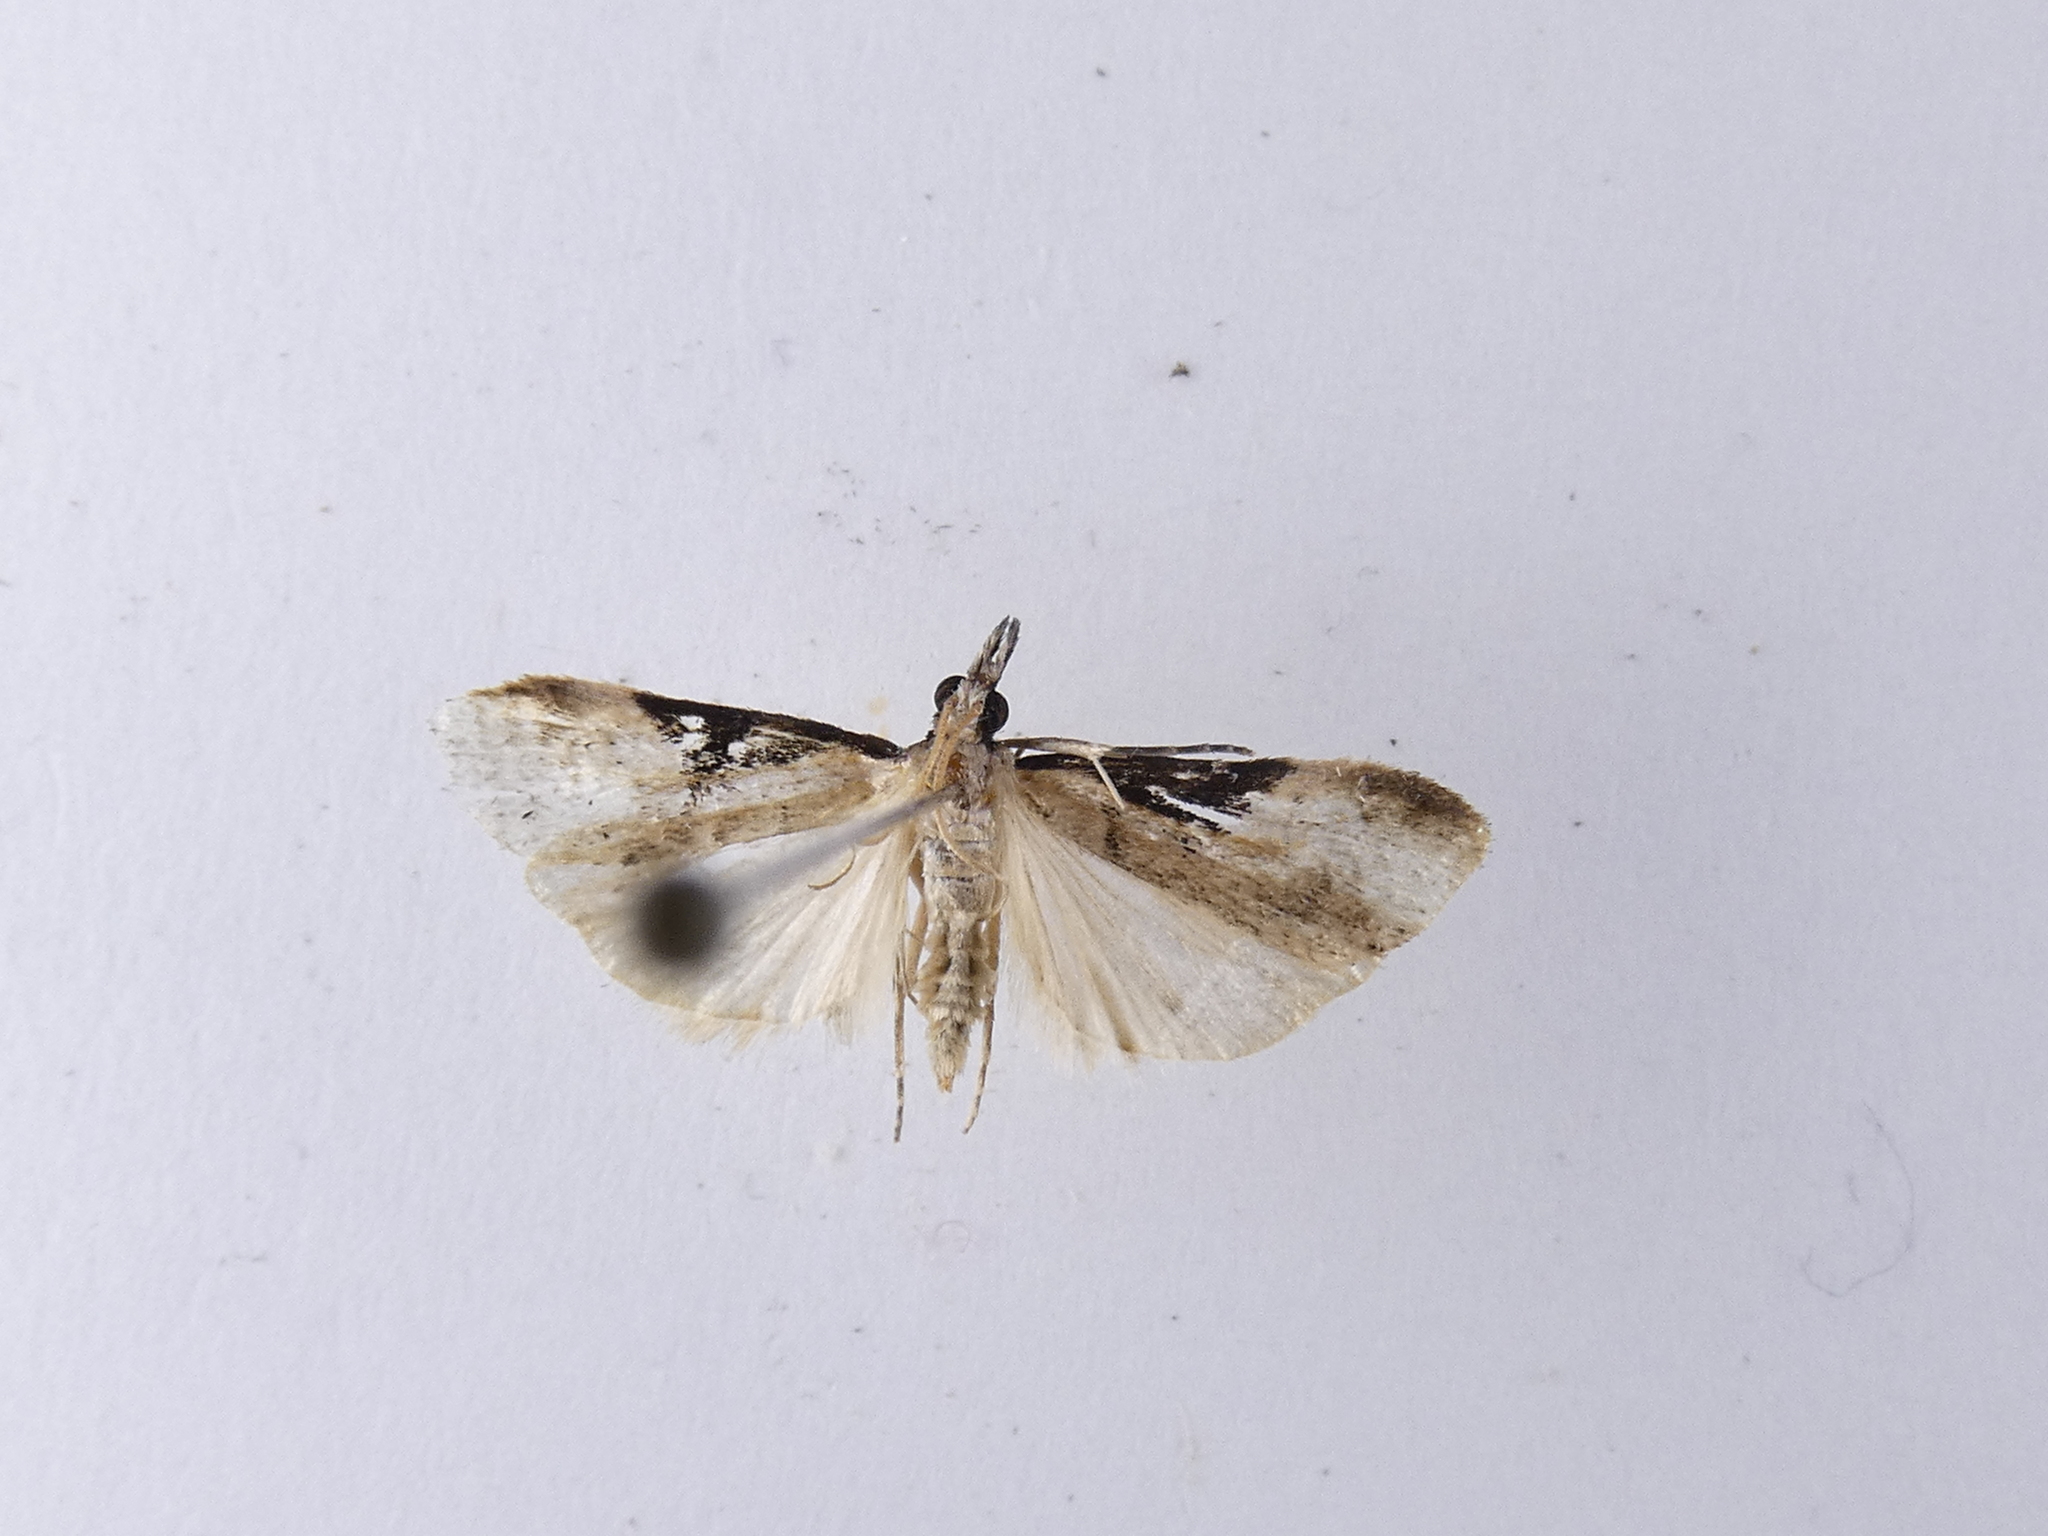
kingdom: Animalia
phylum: Arthropoda
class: Insecta
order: Lepidoptera
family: Crambidae
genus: Eudonia
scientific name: Eudonia pongalis
